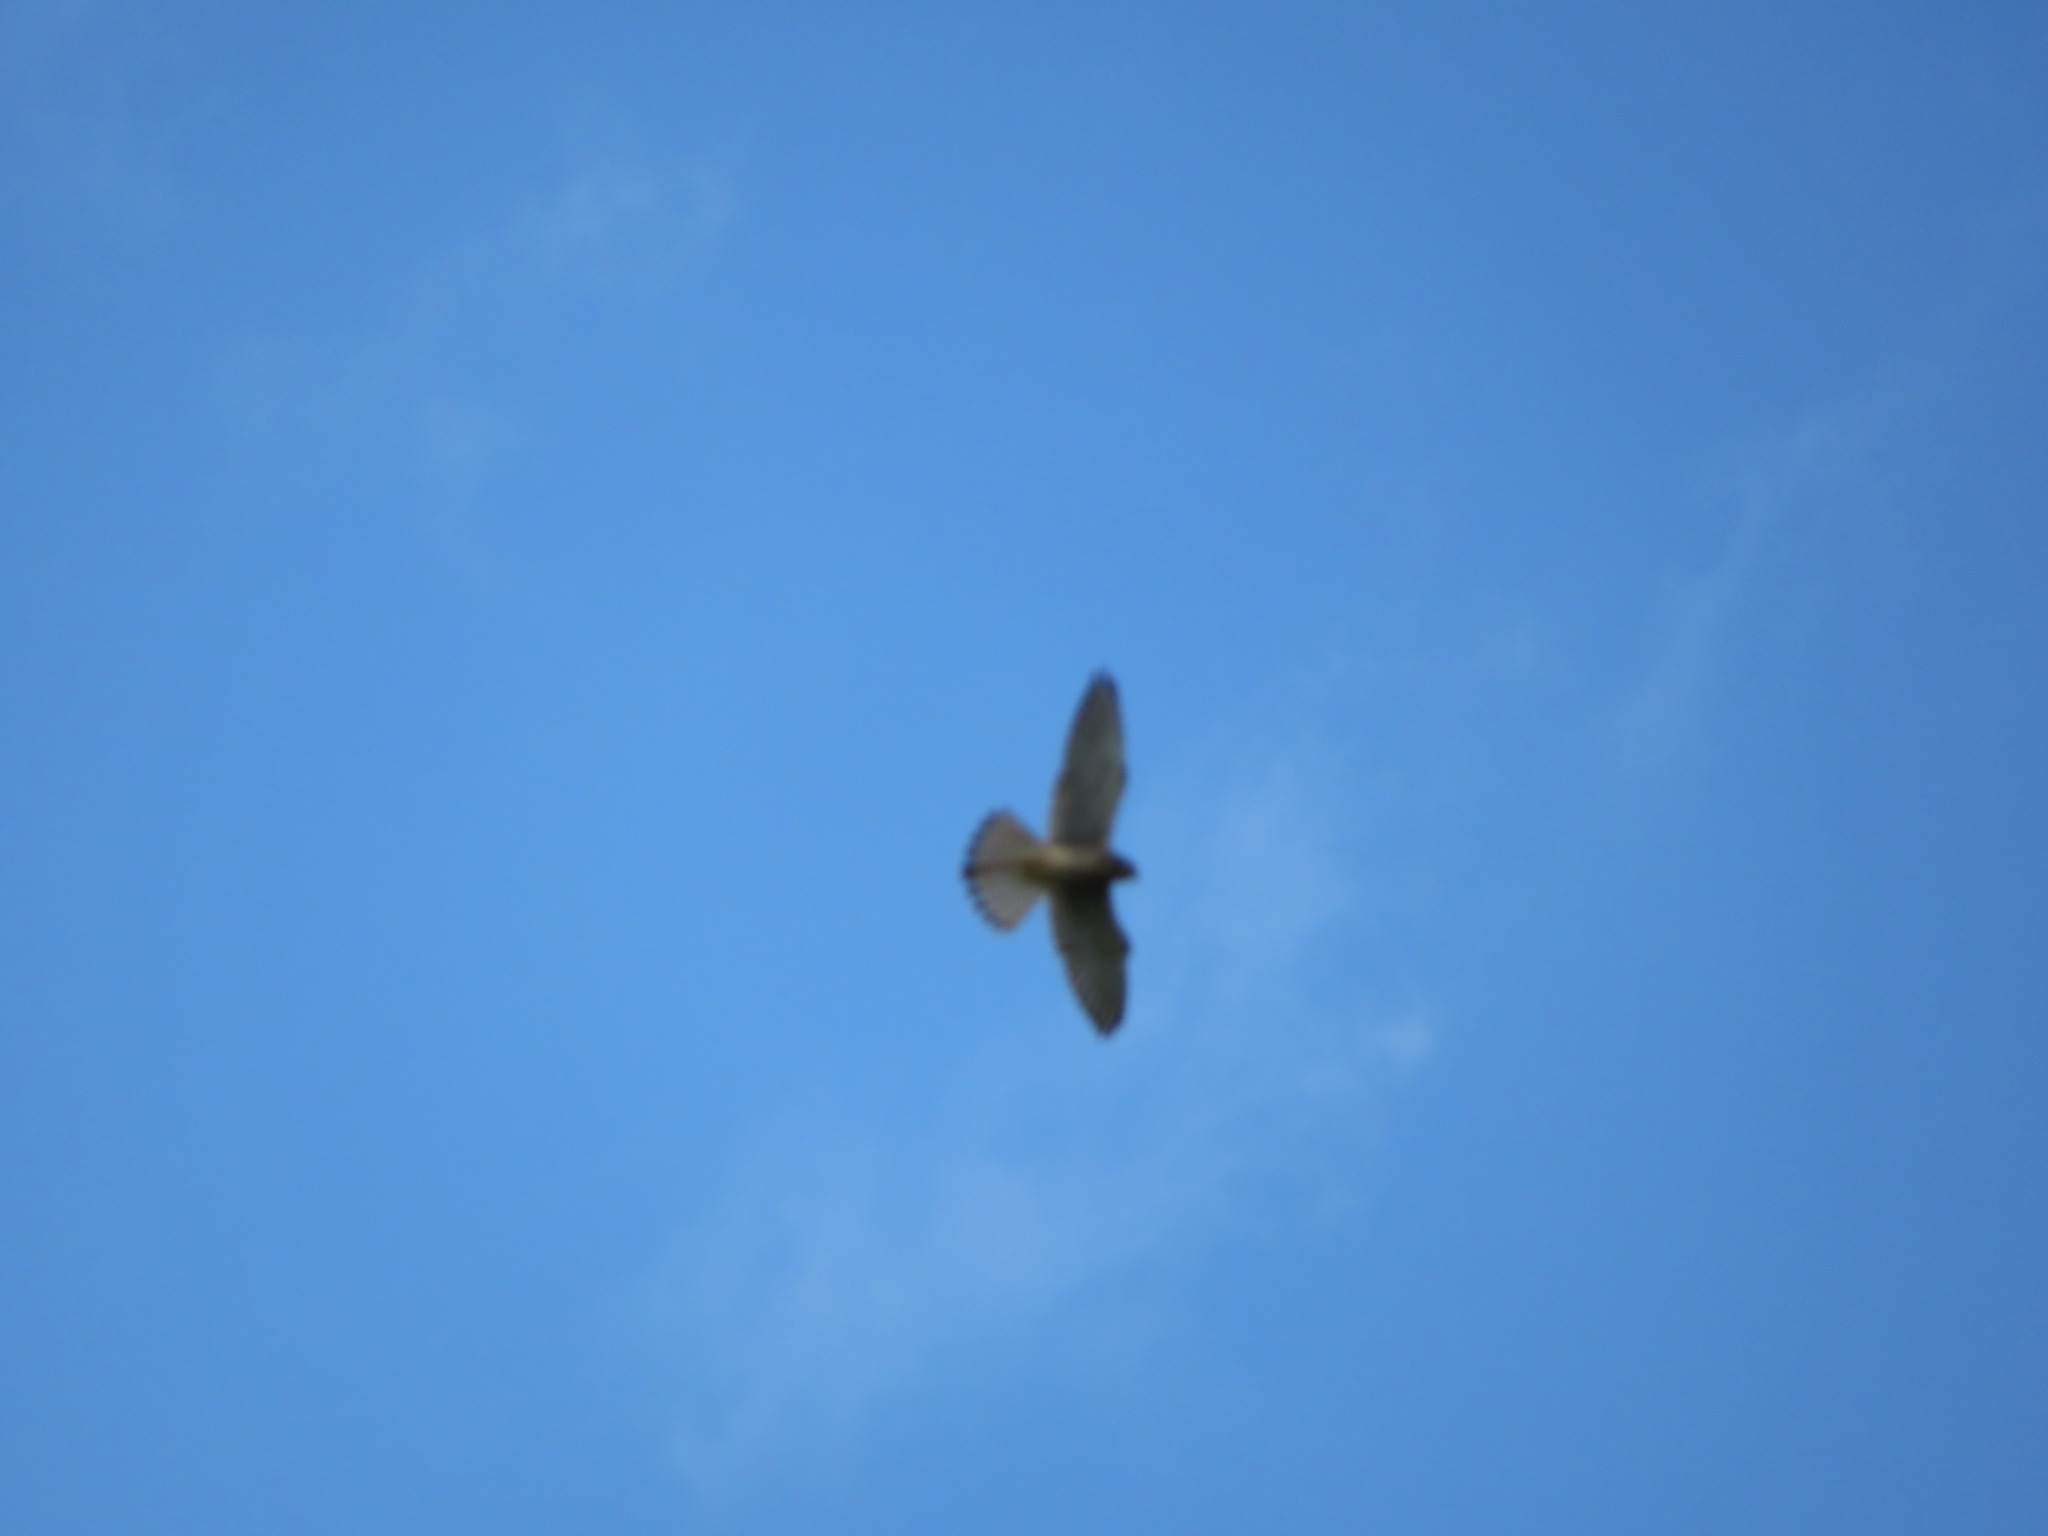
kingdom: Animalia
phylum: Chordata
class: Aves
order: Falconiformes
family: Falconidae
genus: Falco
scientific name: Falco tinnunculus
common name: Common kestrel
